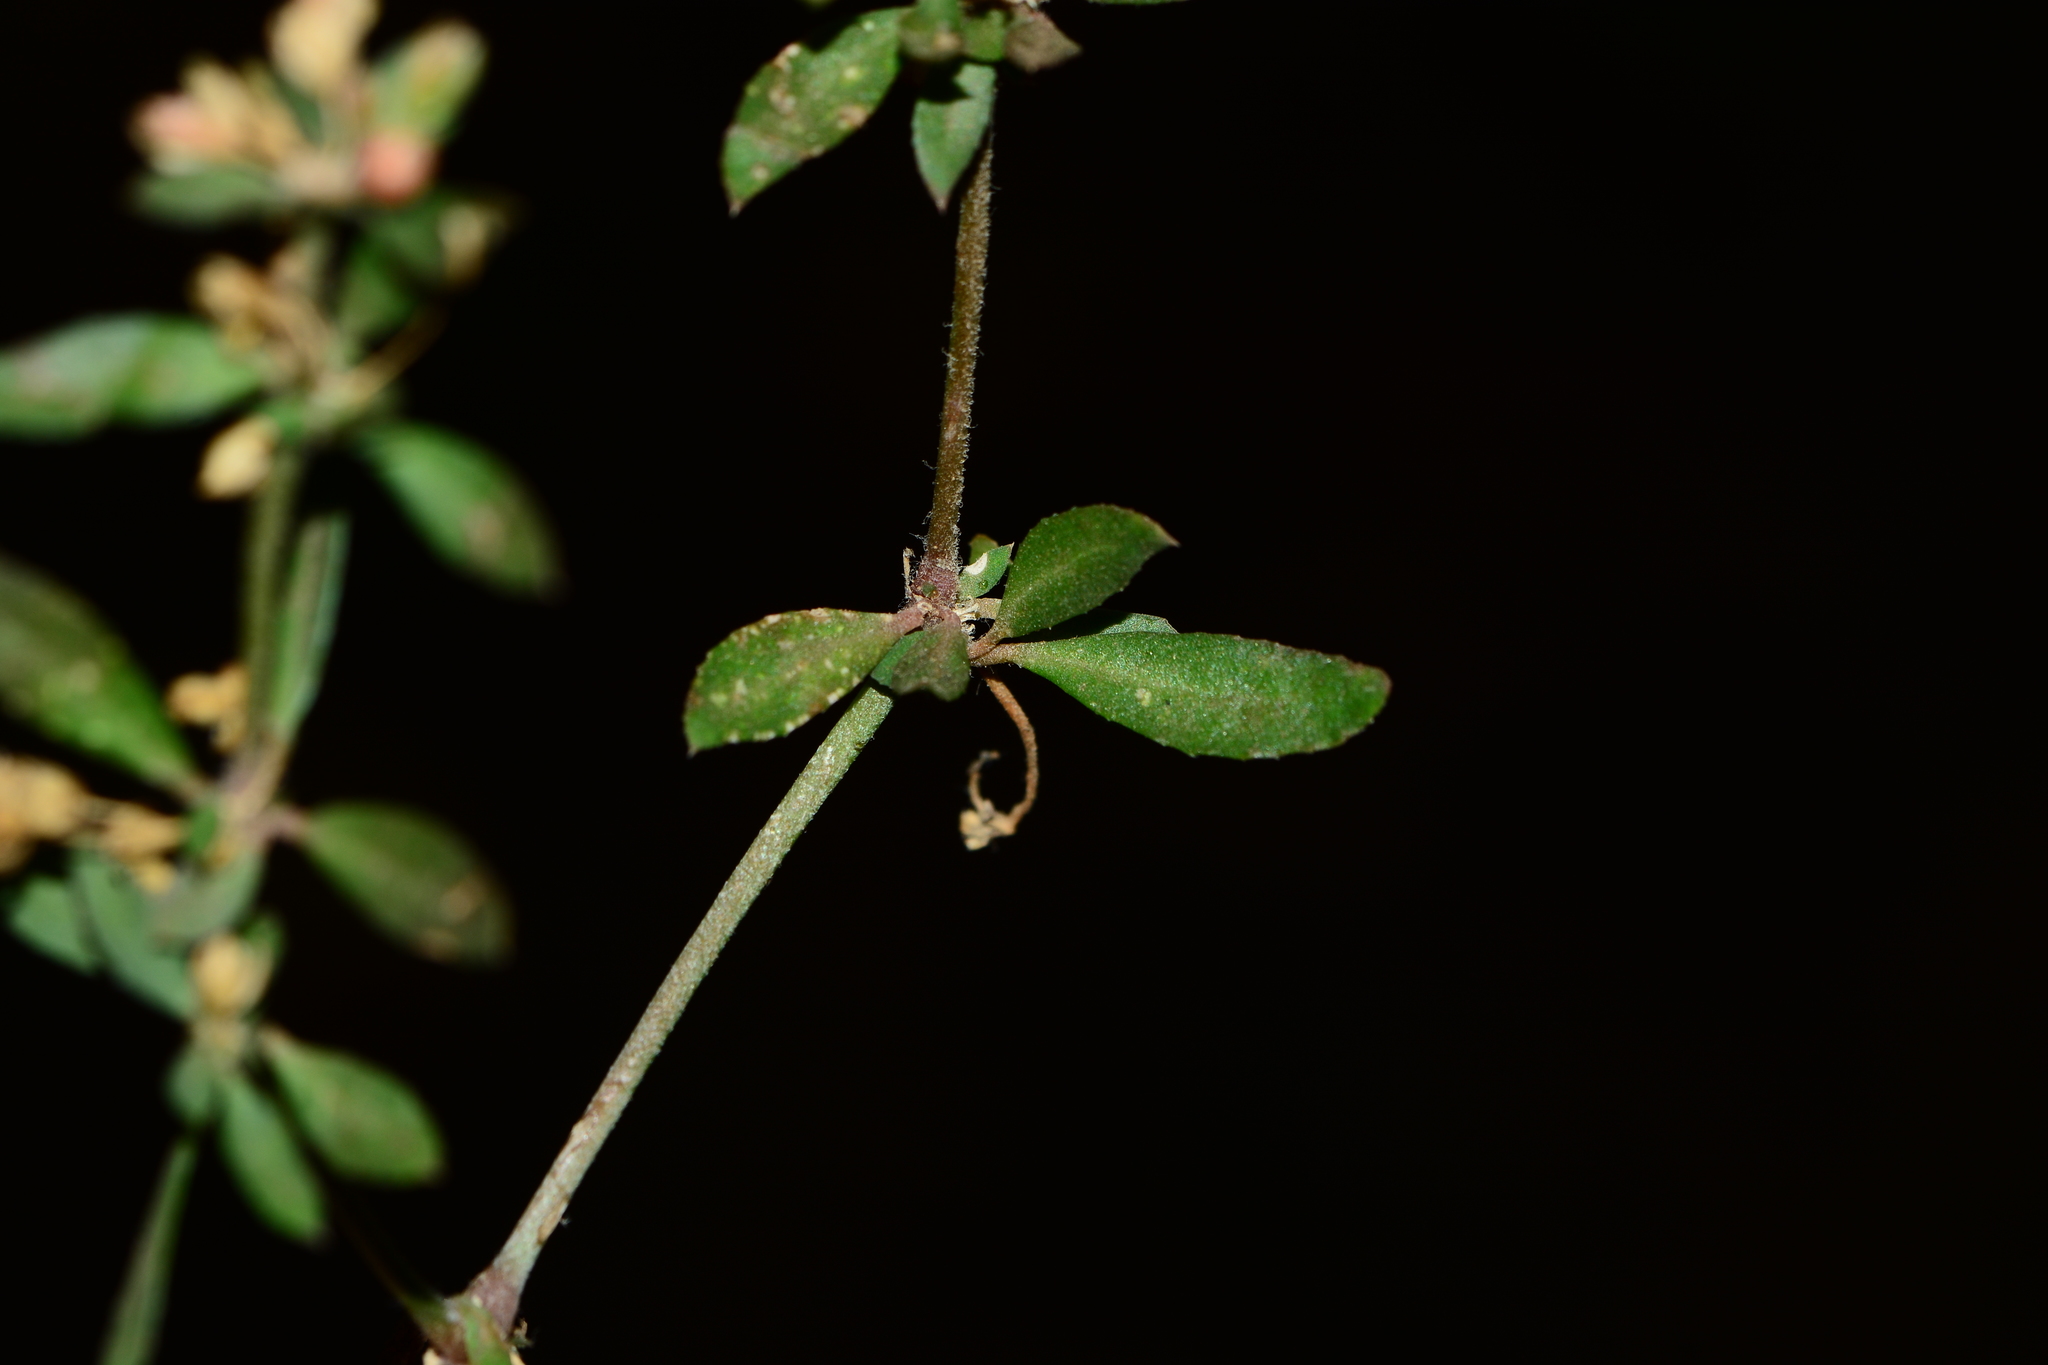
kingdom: Plantae
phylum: Tracheophyta
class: Magnoliopsida
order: Caryophyllales
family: Molluginaceae
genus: Glinus
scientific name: Glinus oppositifolius
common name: Slender carpetweed
